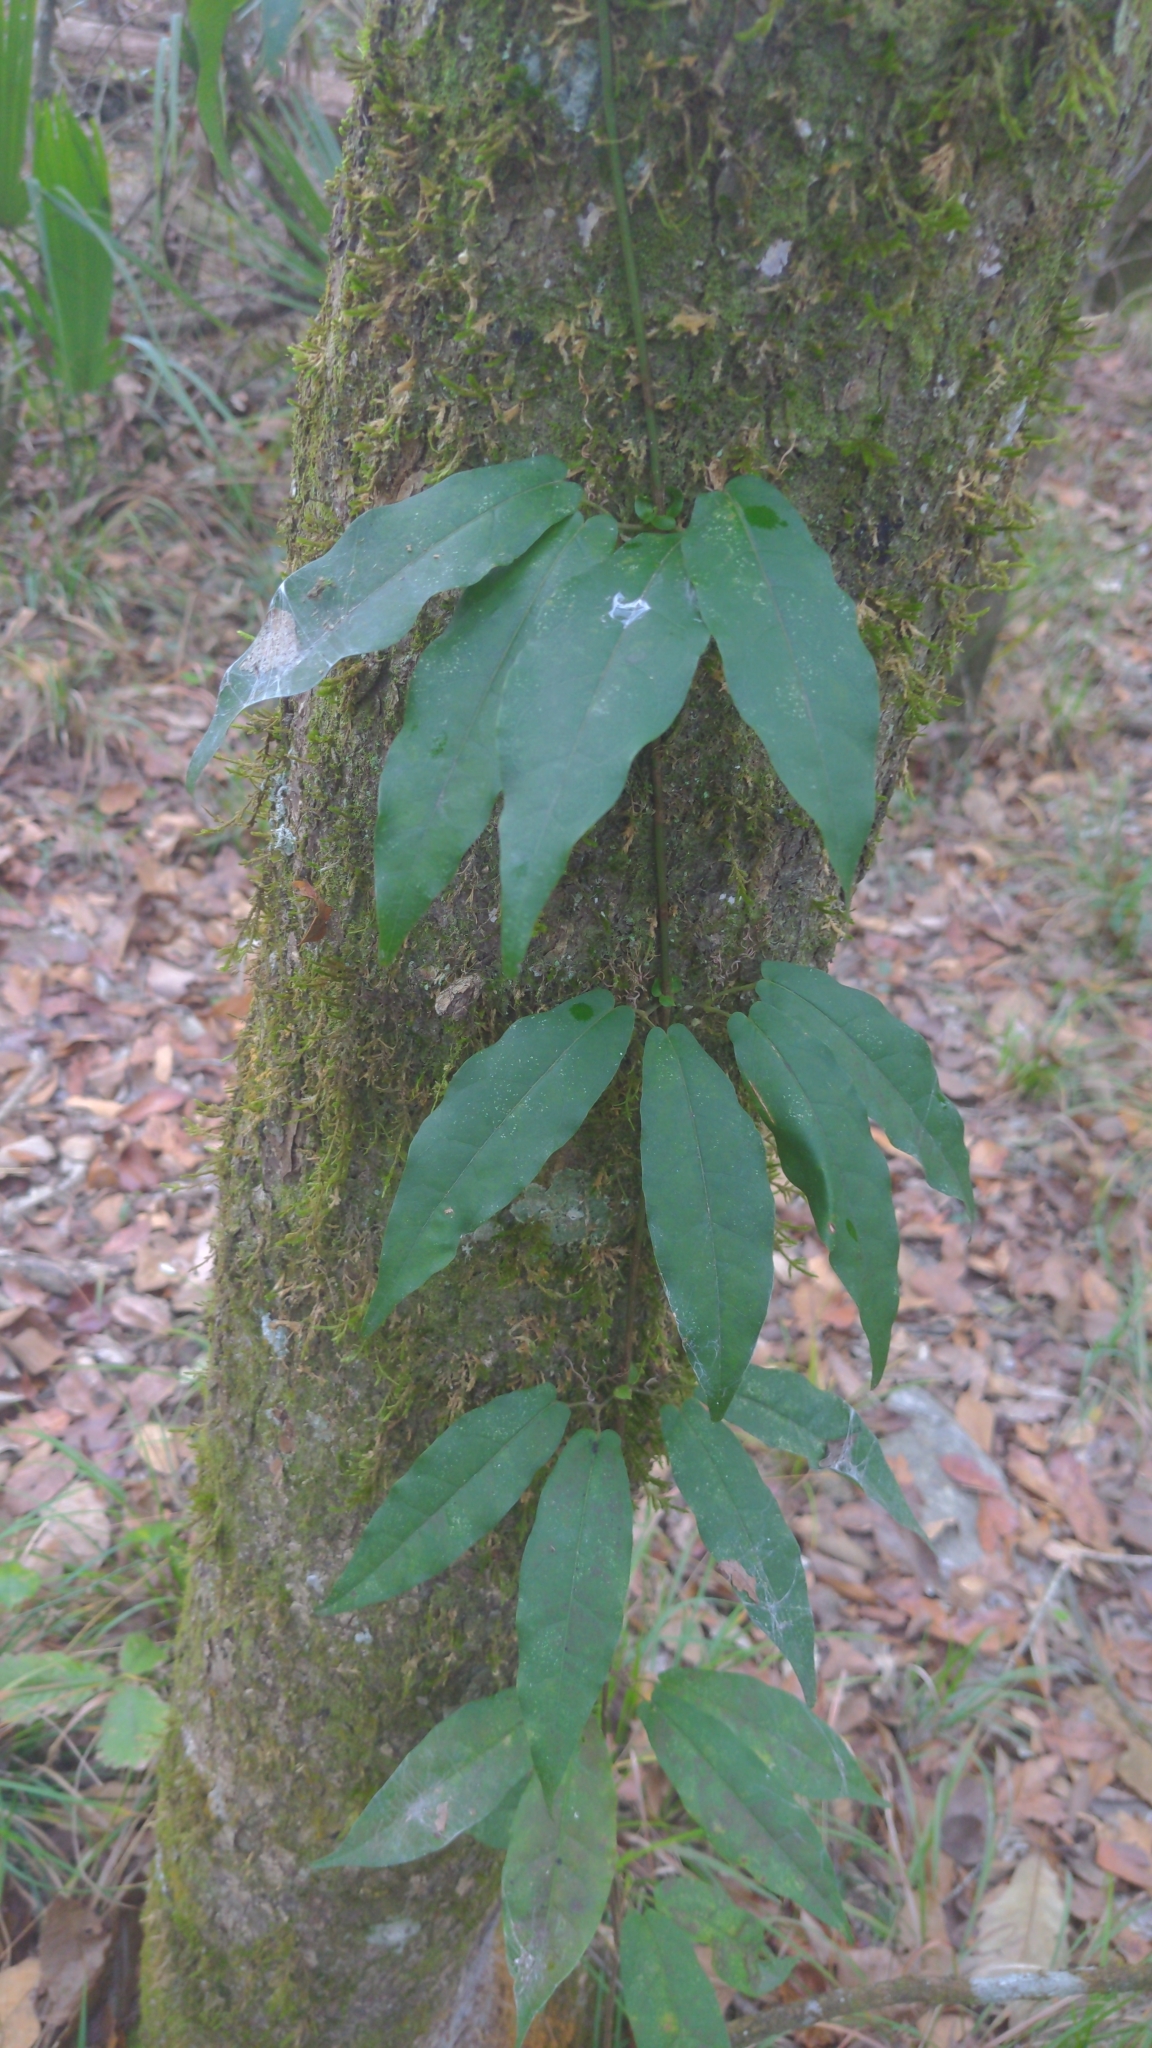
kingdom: Plantae
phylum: Tracheophyta
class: Magnoliopsida
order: Lamiales
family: Bignoniaceae
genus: Bignonia
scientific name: Bignonia capreolata
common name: Crossvine
